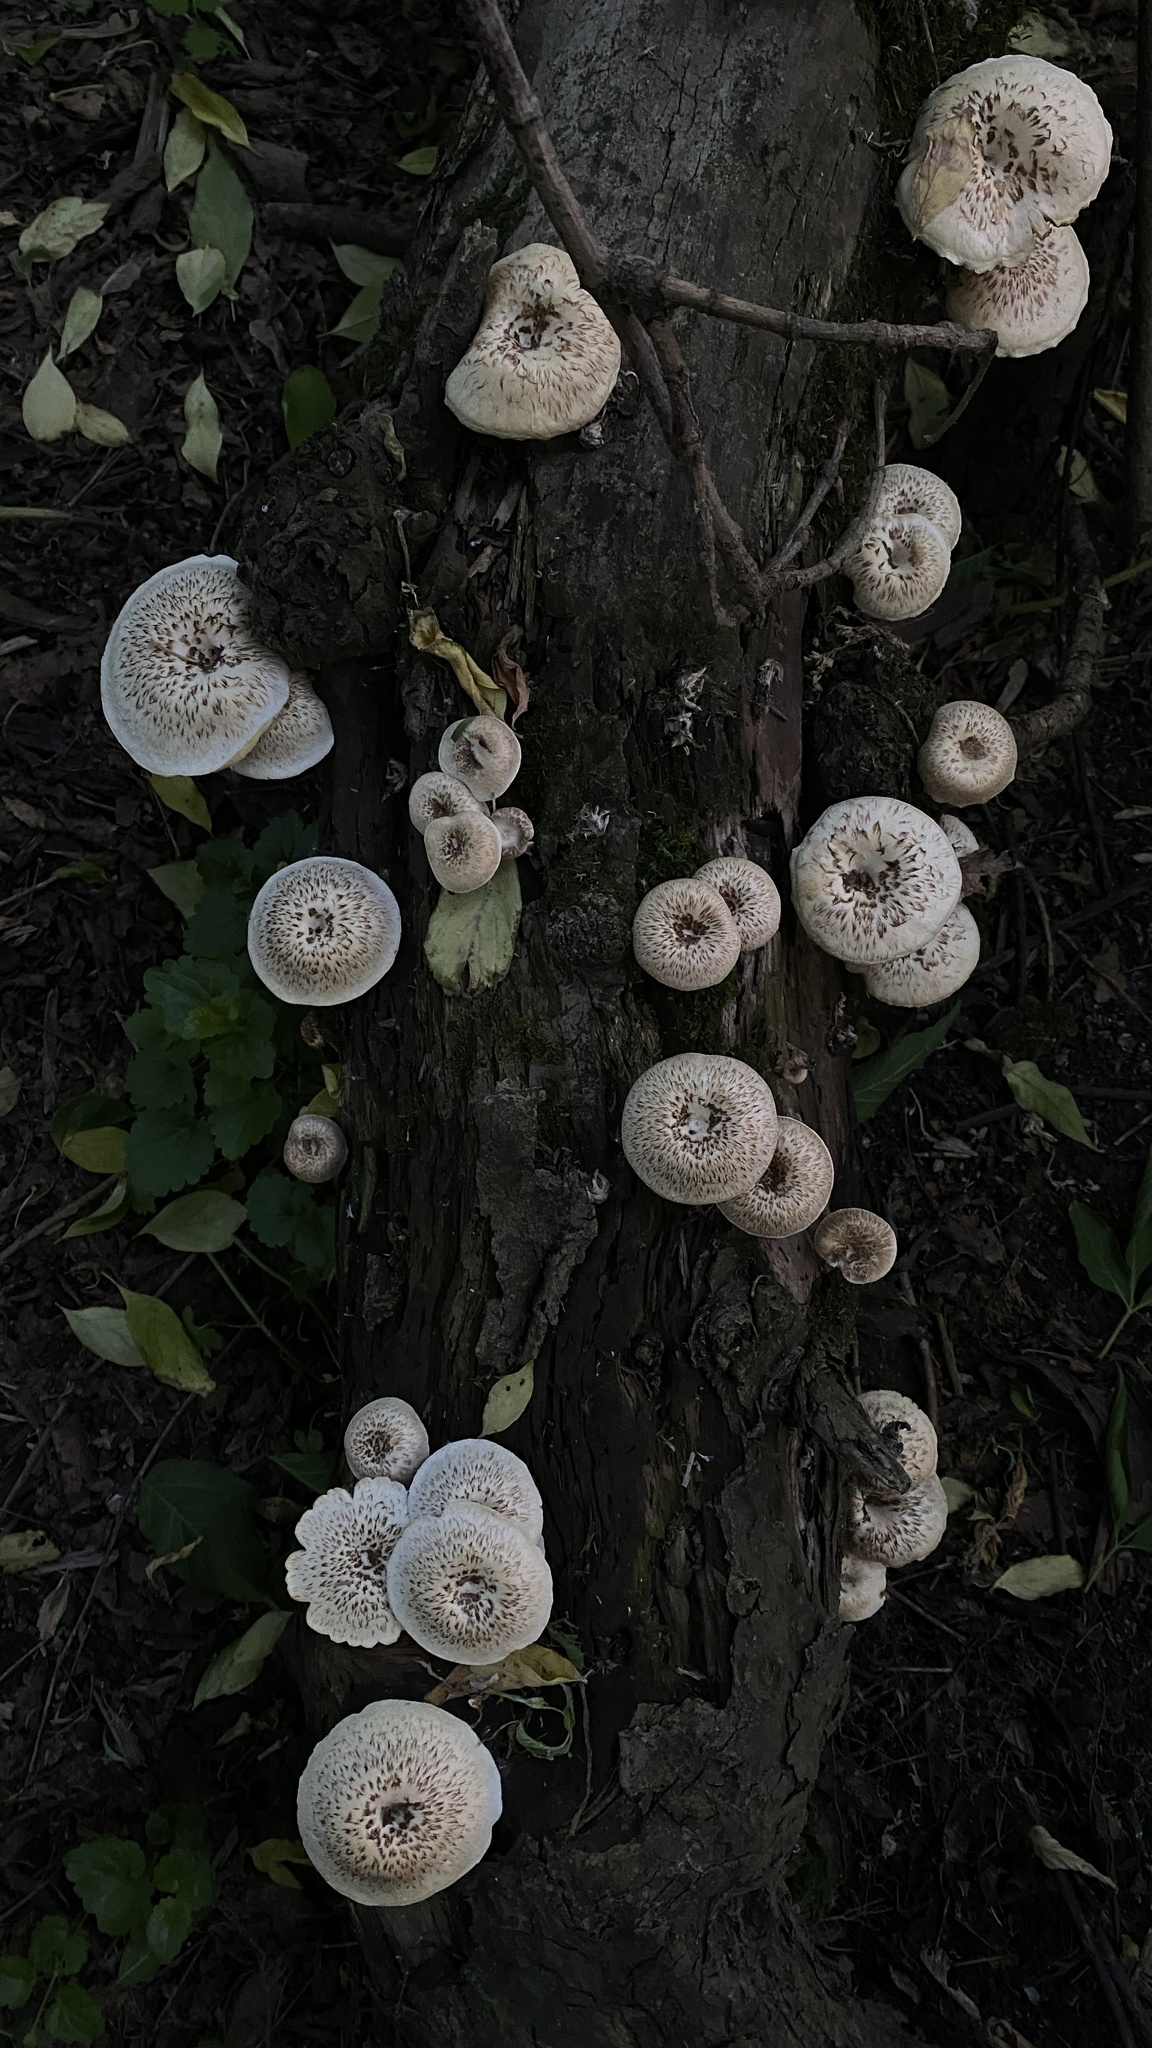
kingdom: Fungi
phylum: Basidiomycota
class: Agaricomycetes
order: Polyporales
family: Polyporaceae
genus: Lentinus
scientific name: Lentinus tigrinus
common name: Tiger sawgill
